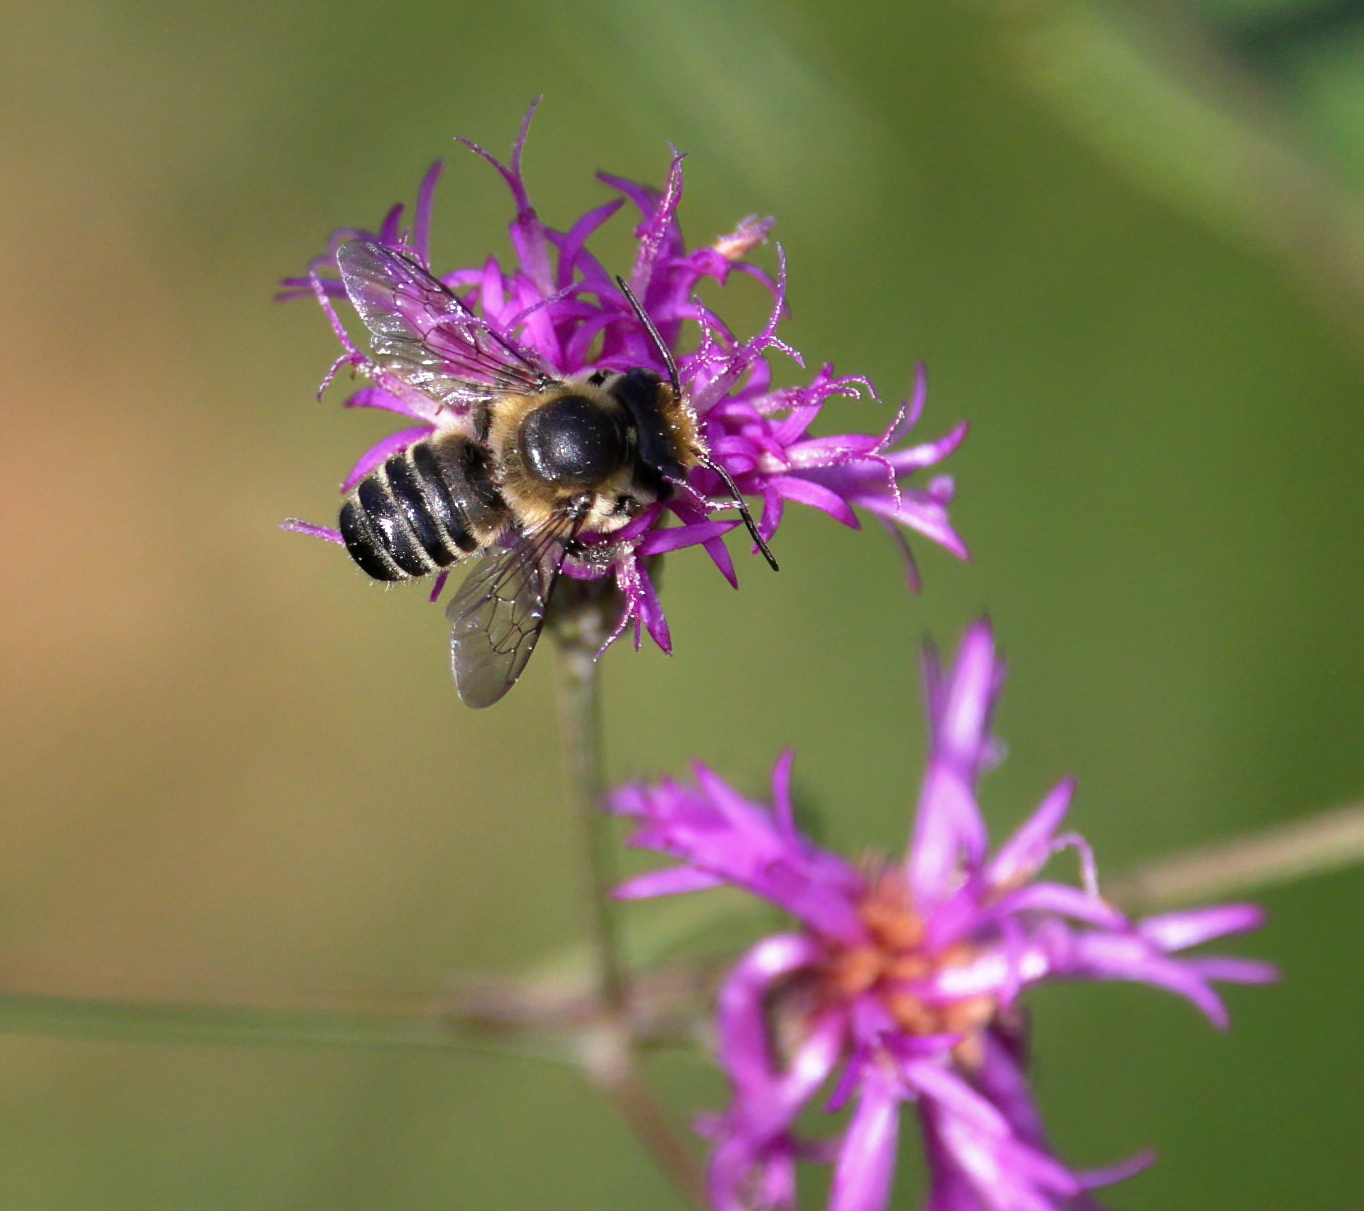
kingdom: Animalia
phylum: Arthropoda
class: Insecta
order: Hymenoptera
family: Megachilidae
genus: Megachile
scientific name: Megachile mendica
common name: Flat-tailed leafcutter
